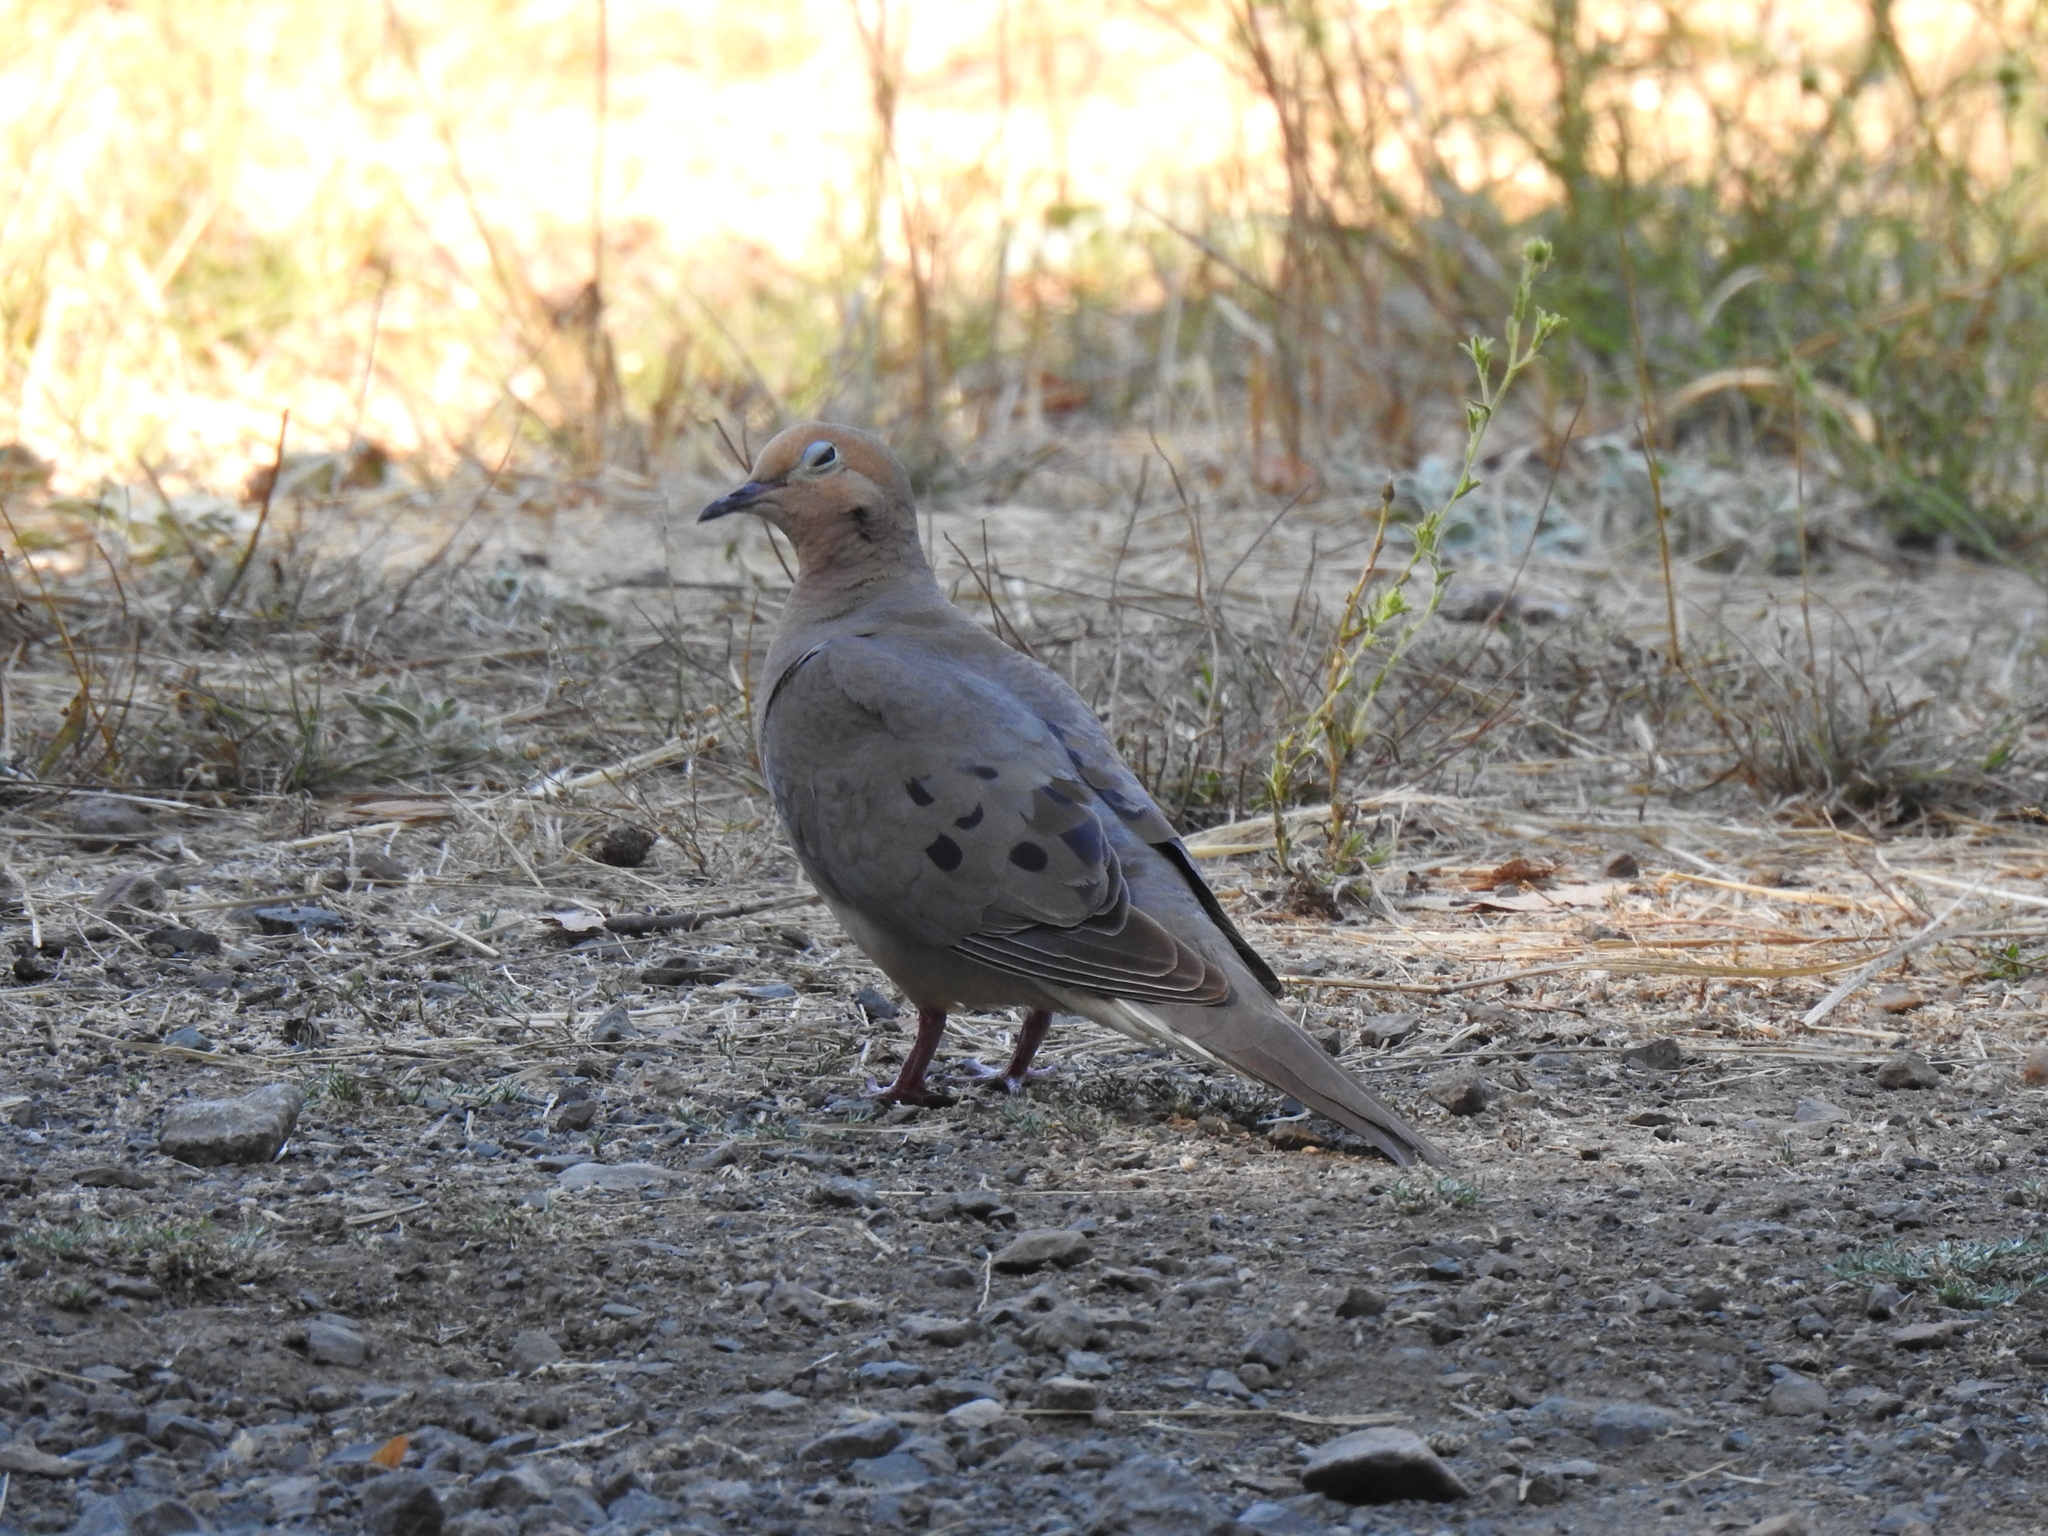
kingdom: Animalia
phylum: Chordata
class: Aves
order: Columbiformes
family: Columbidae
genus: Zenaida
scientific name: Zenaida macroura
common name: Mourning dove
